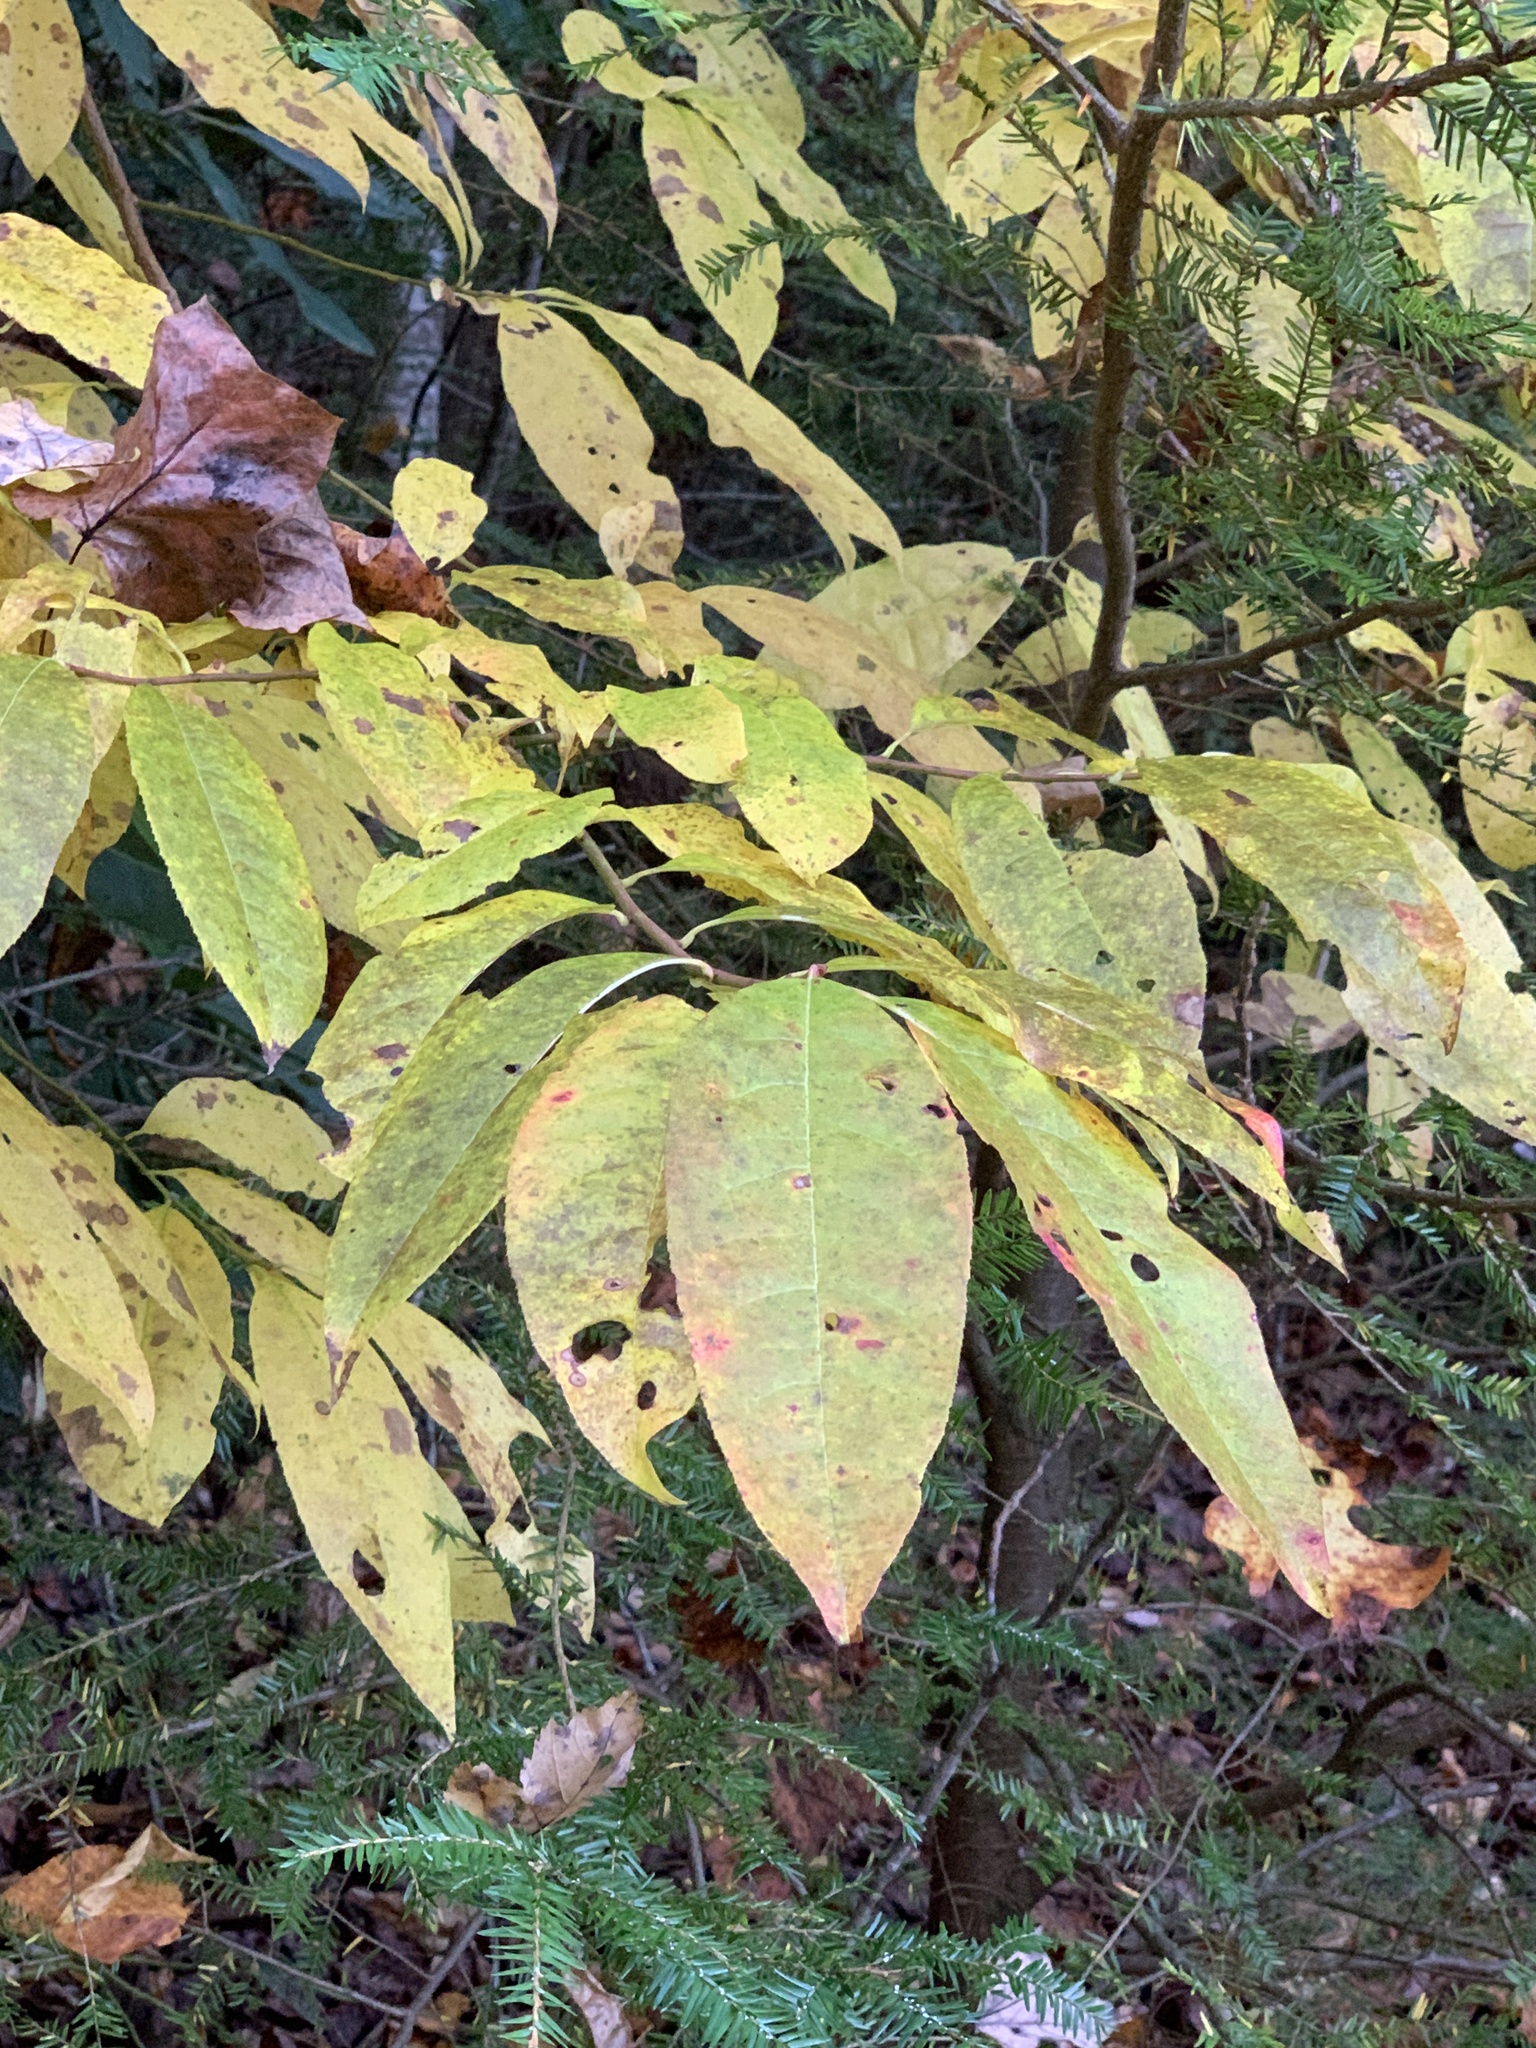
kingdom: Plantae
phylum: Tracheophyta
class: Magnoliopsida
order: Ericales
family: Ericaceae
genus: Oxydendrum
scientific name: Oxydendrum arboreum
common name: Sourwood
